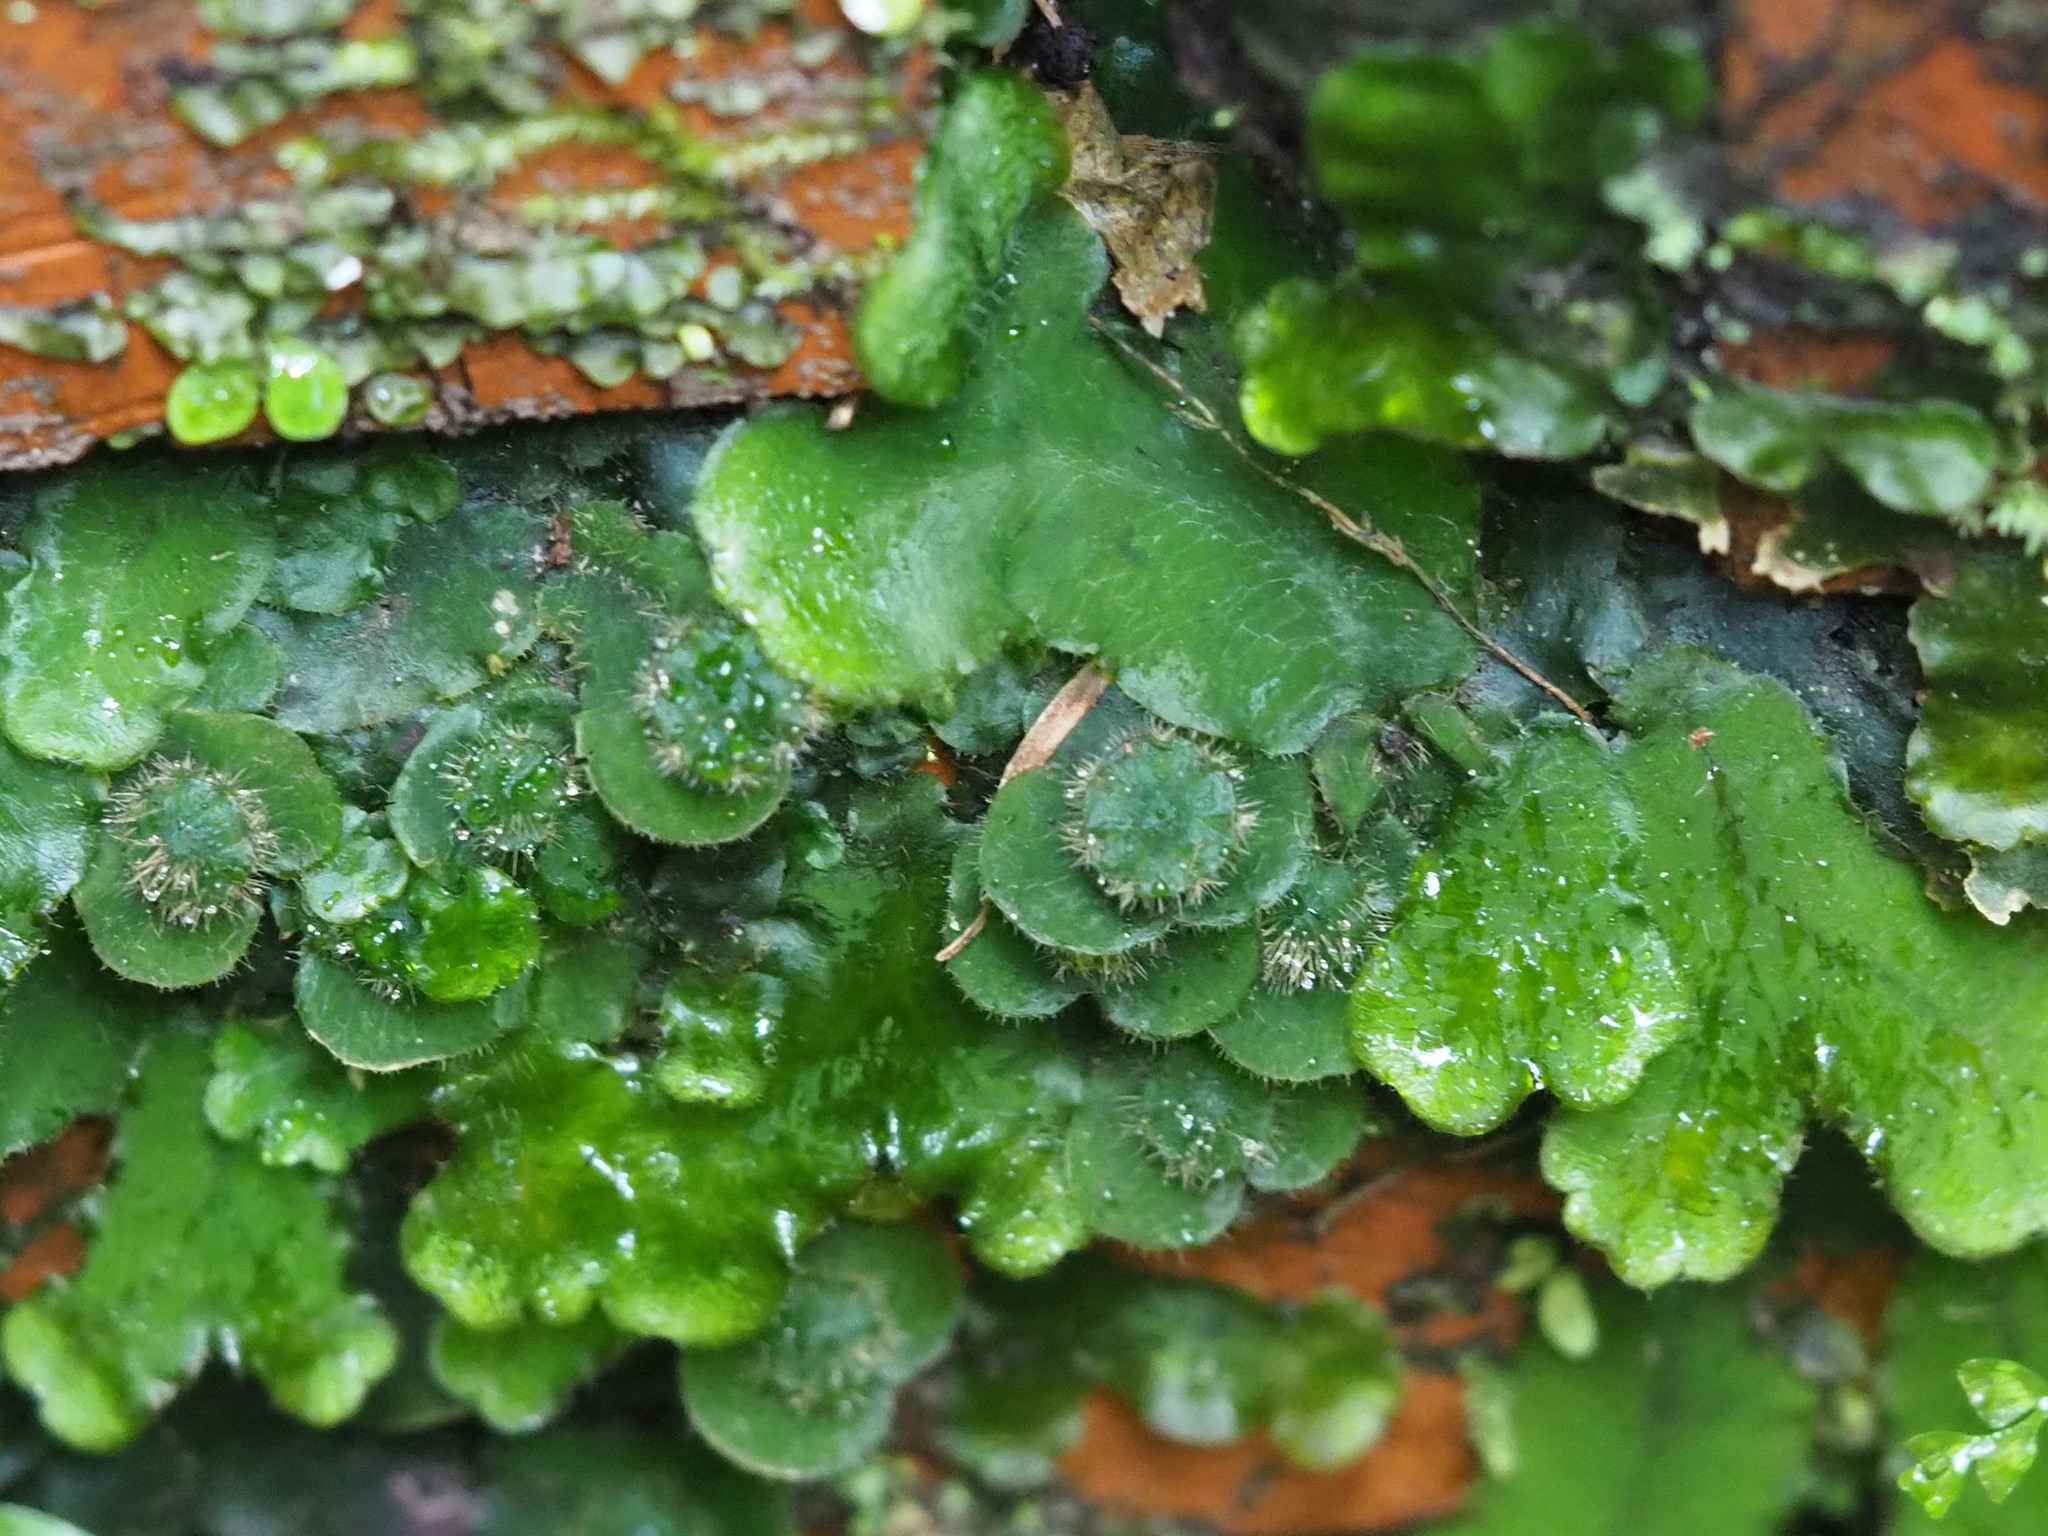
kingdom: Plantae
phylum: Marchantiophyta
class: Marchantiopsida
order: Marchantiales
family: Dumortieraceae
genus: Dumortiera
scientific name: Dumortiera hirsuta
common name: Dumortier's liverwort
